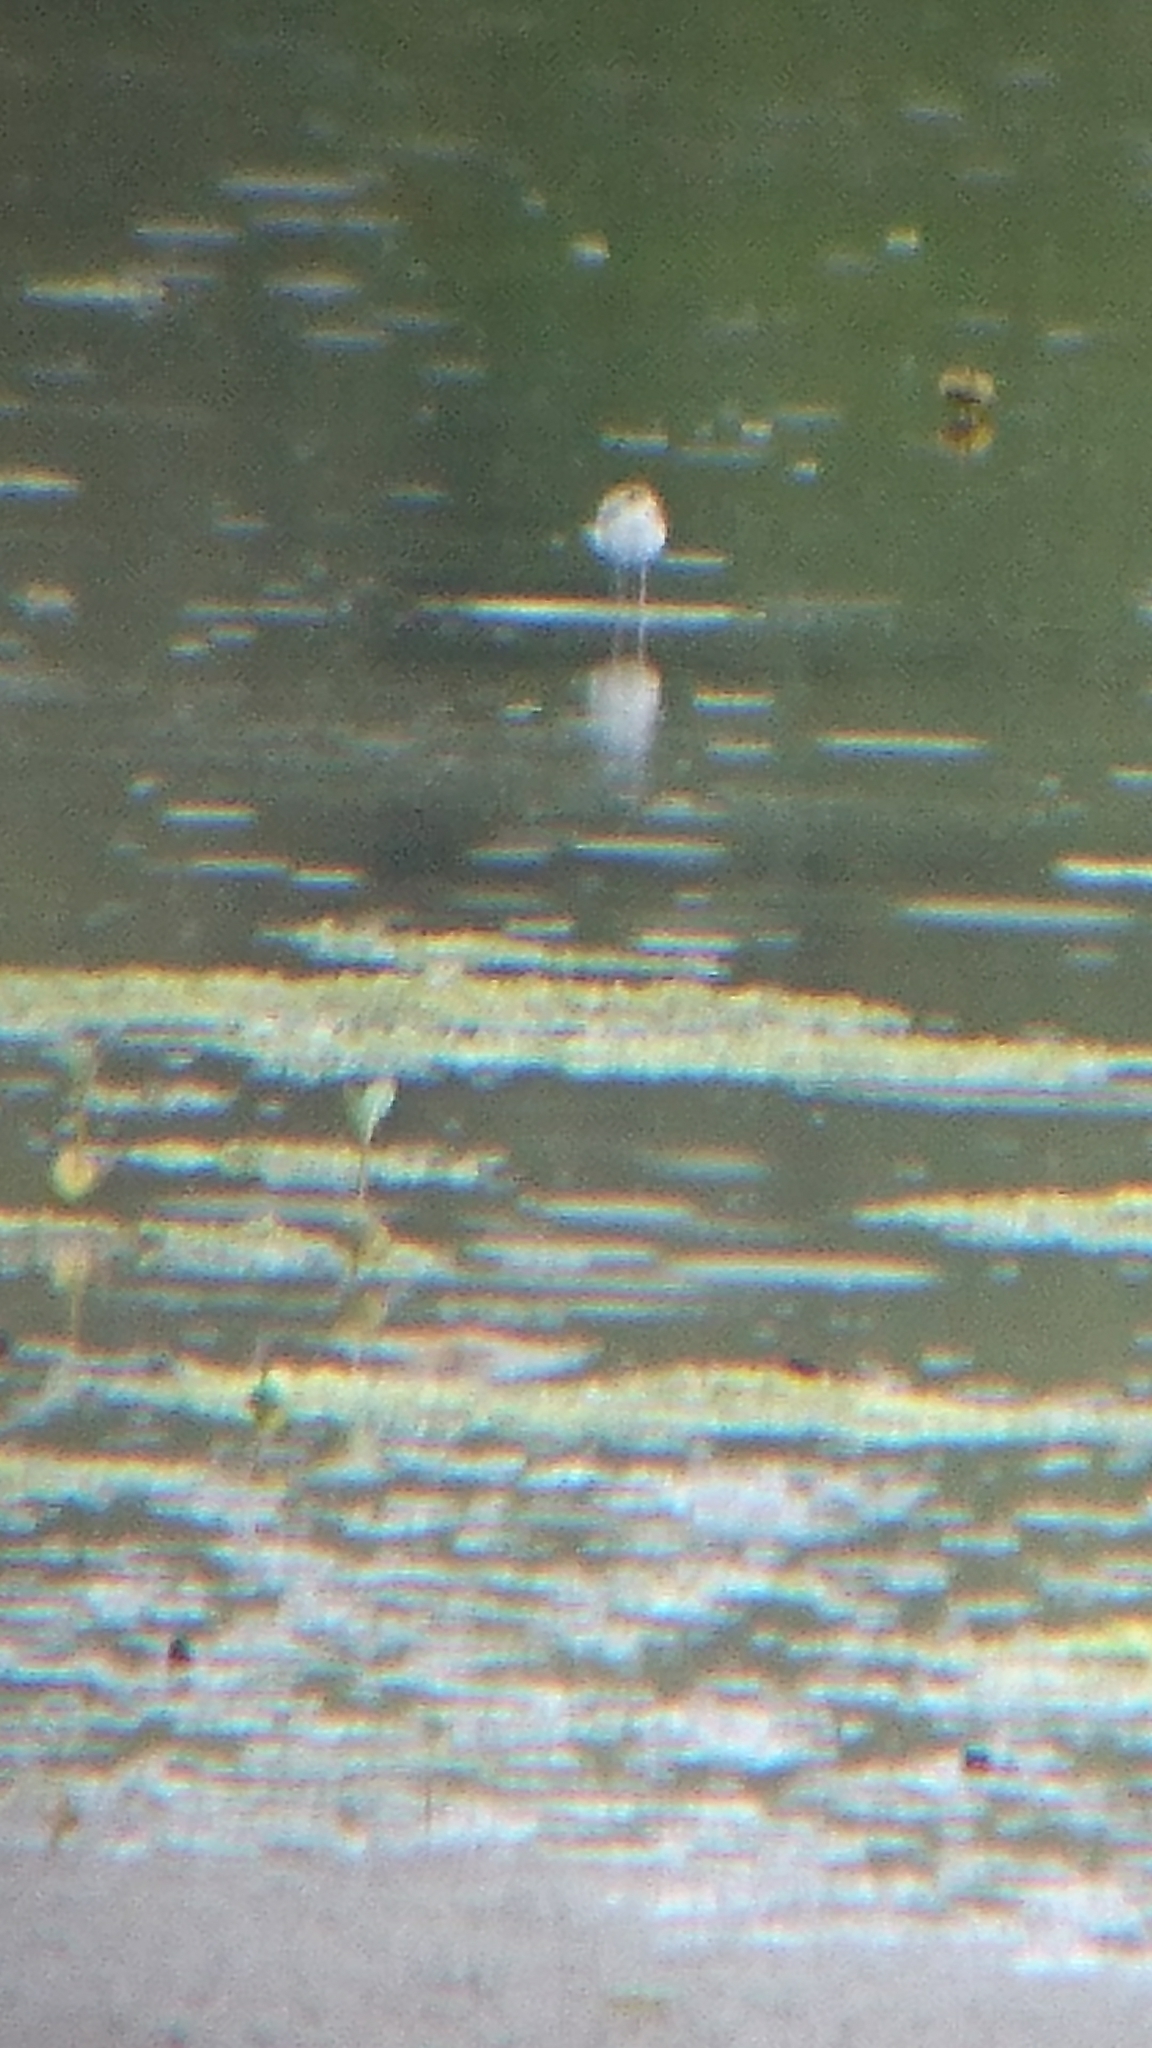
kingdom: Animalia
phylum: Chordata
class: Aves
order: Charadriiformes
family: Recurvirostridae
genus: Himantopus
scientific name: Himantopus leucocephalus
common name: White-headed stilt
